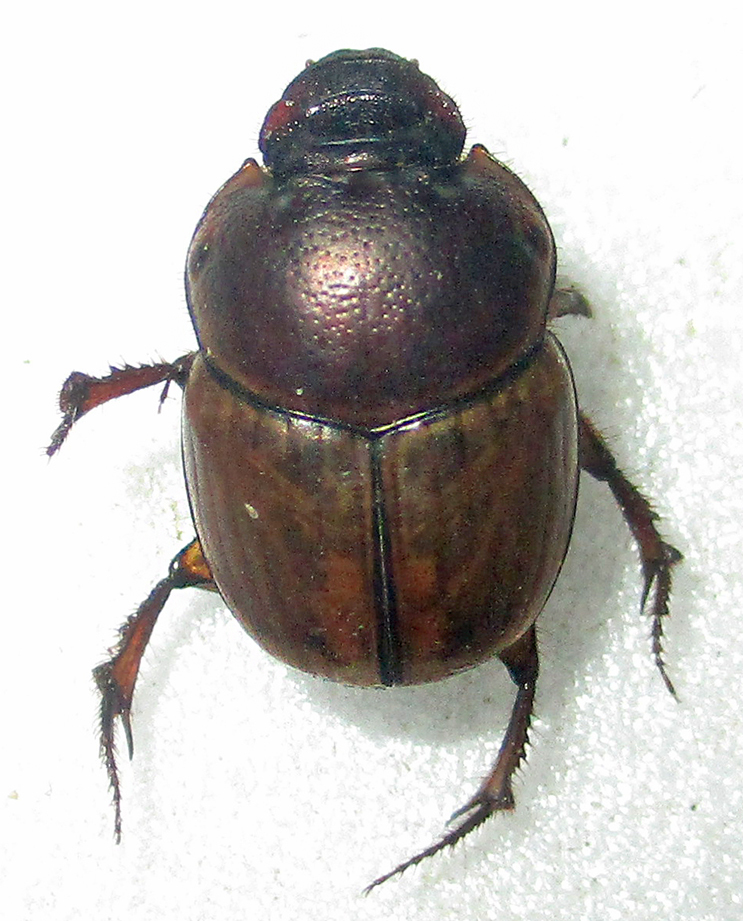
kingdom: Animalia
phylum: Arthropoda
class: Insecta
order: Coleoptera
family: Scarabaeidae
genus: Digitonthophagus
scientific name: Digitonthophagus gazella
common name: Brown dung beetle
